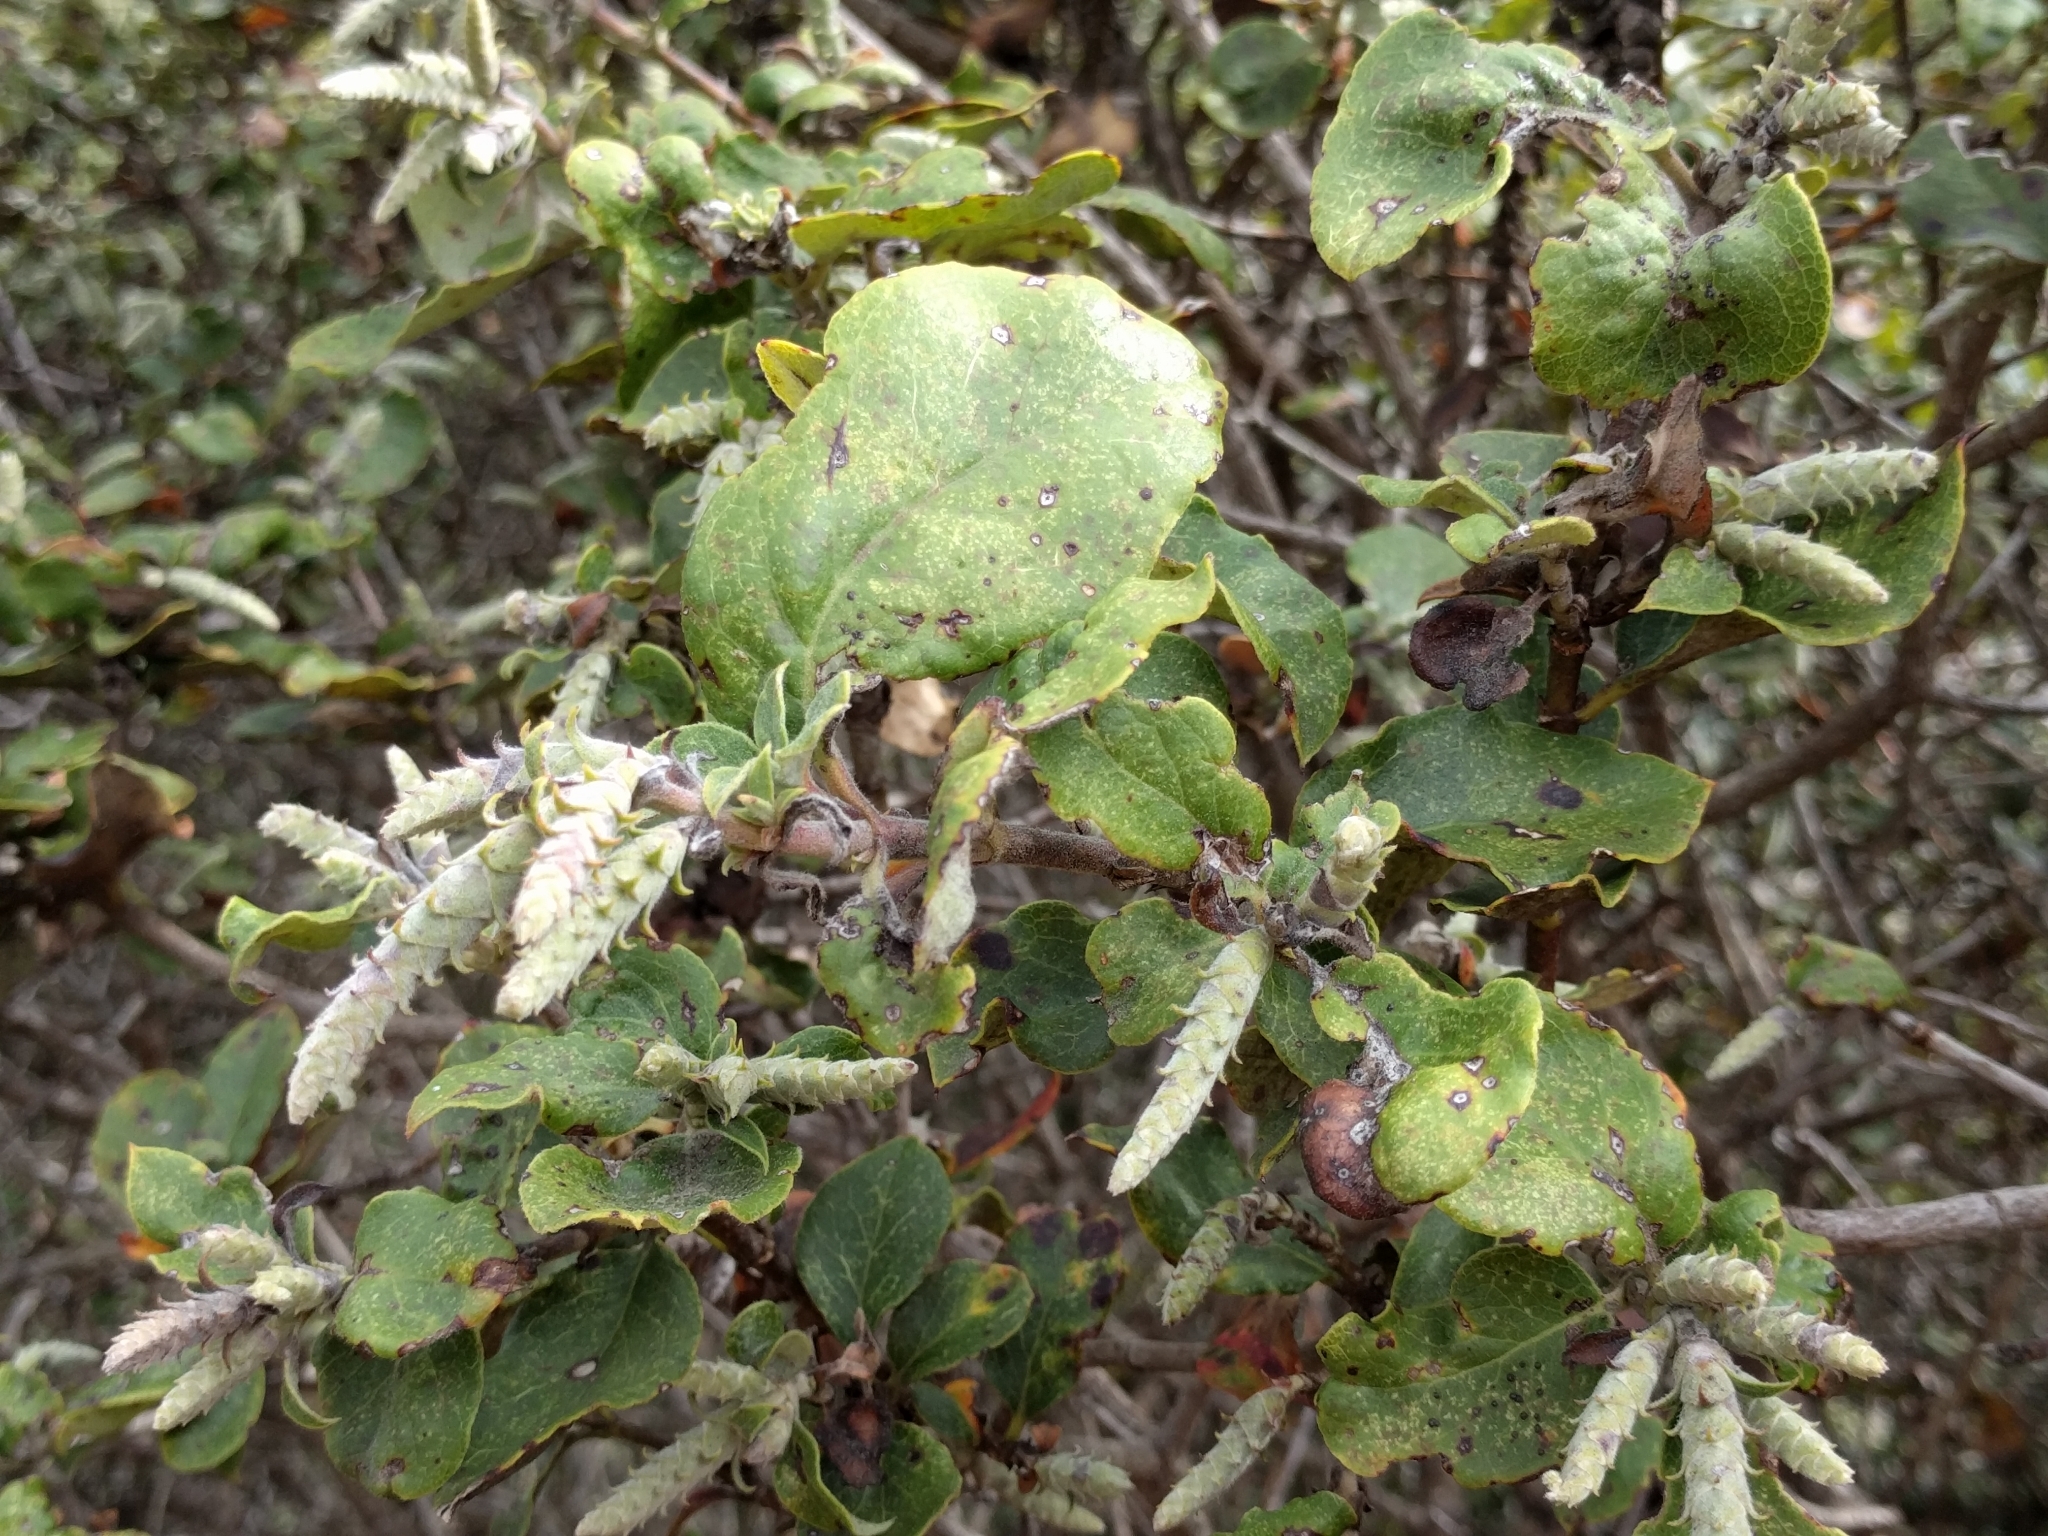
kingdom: Plantae
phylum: Tracheophyta
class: Magnoliopsida
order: Garryales
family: Garryaceae
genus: Garrya
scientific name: Garrya elliptica
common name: Silk-tassel
